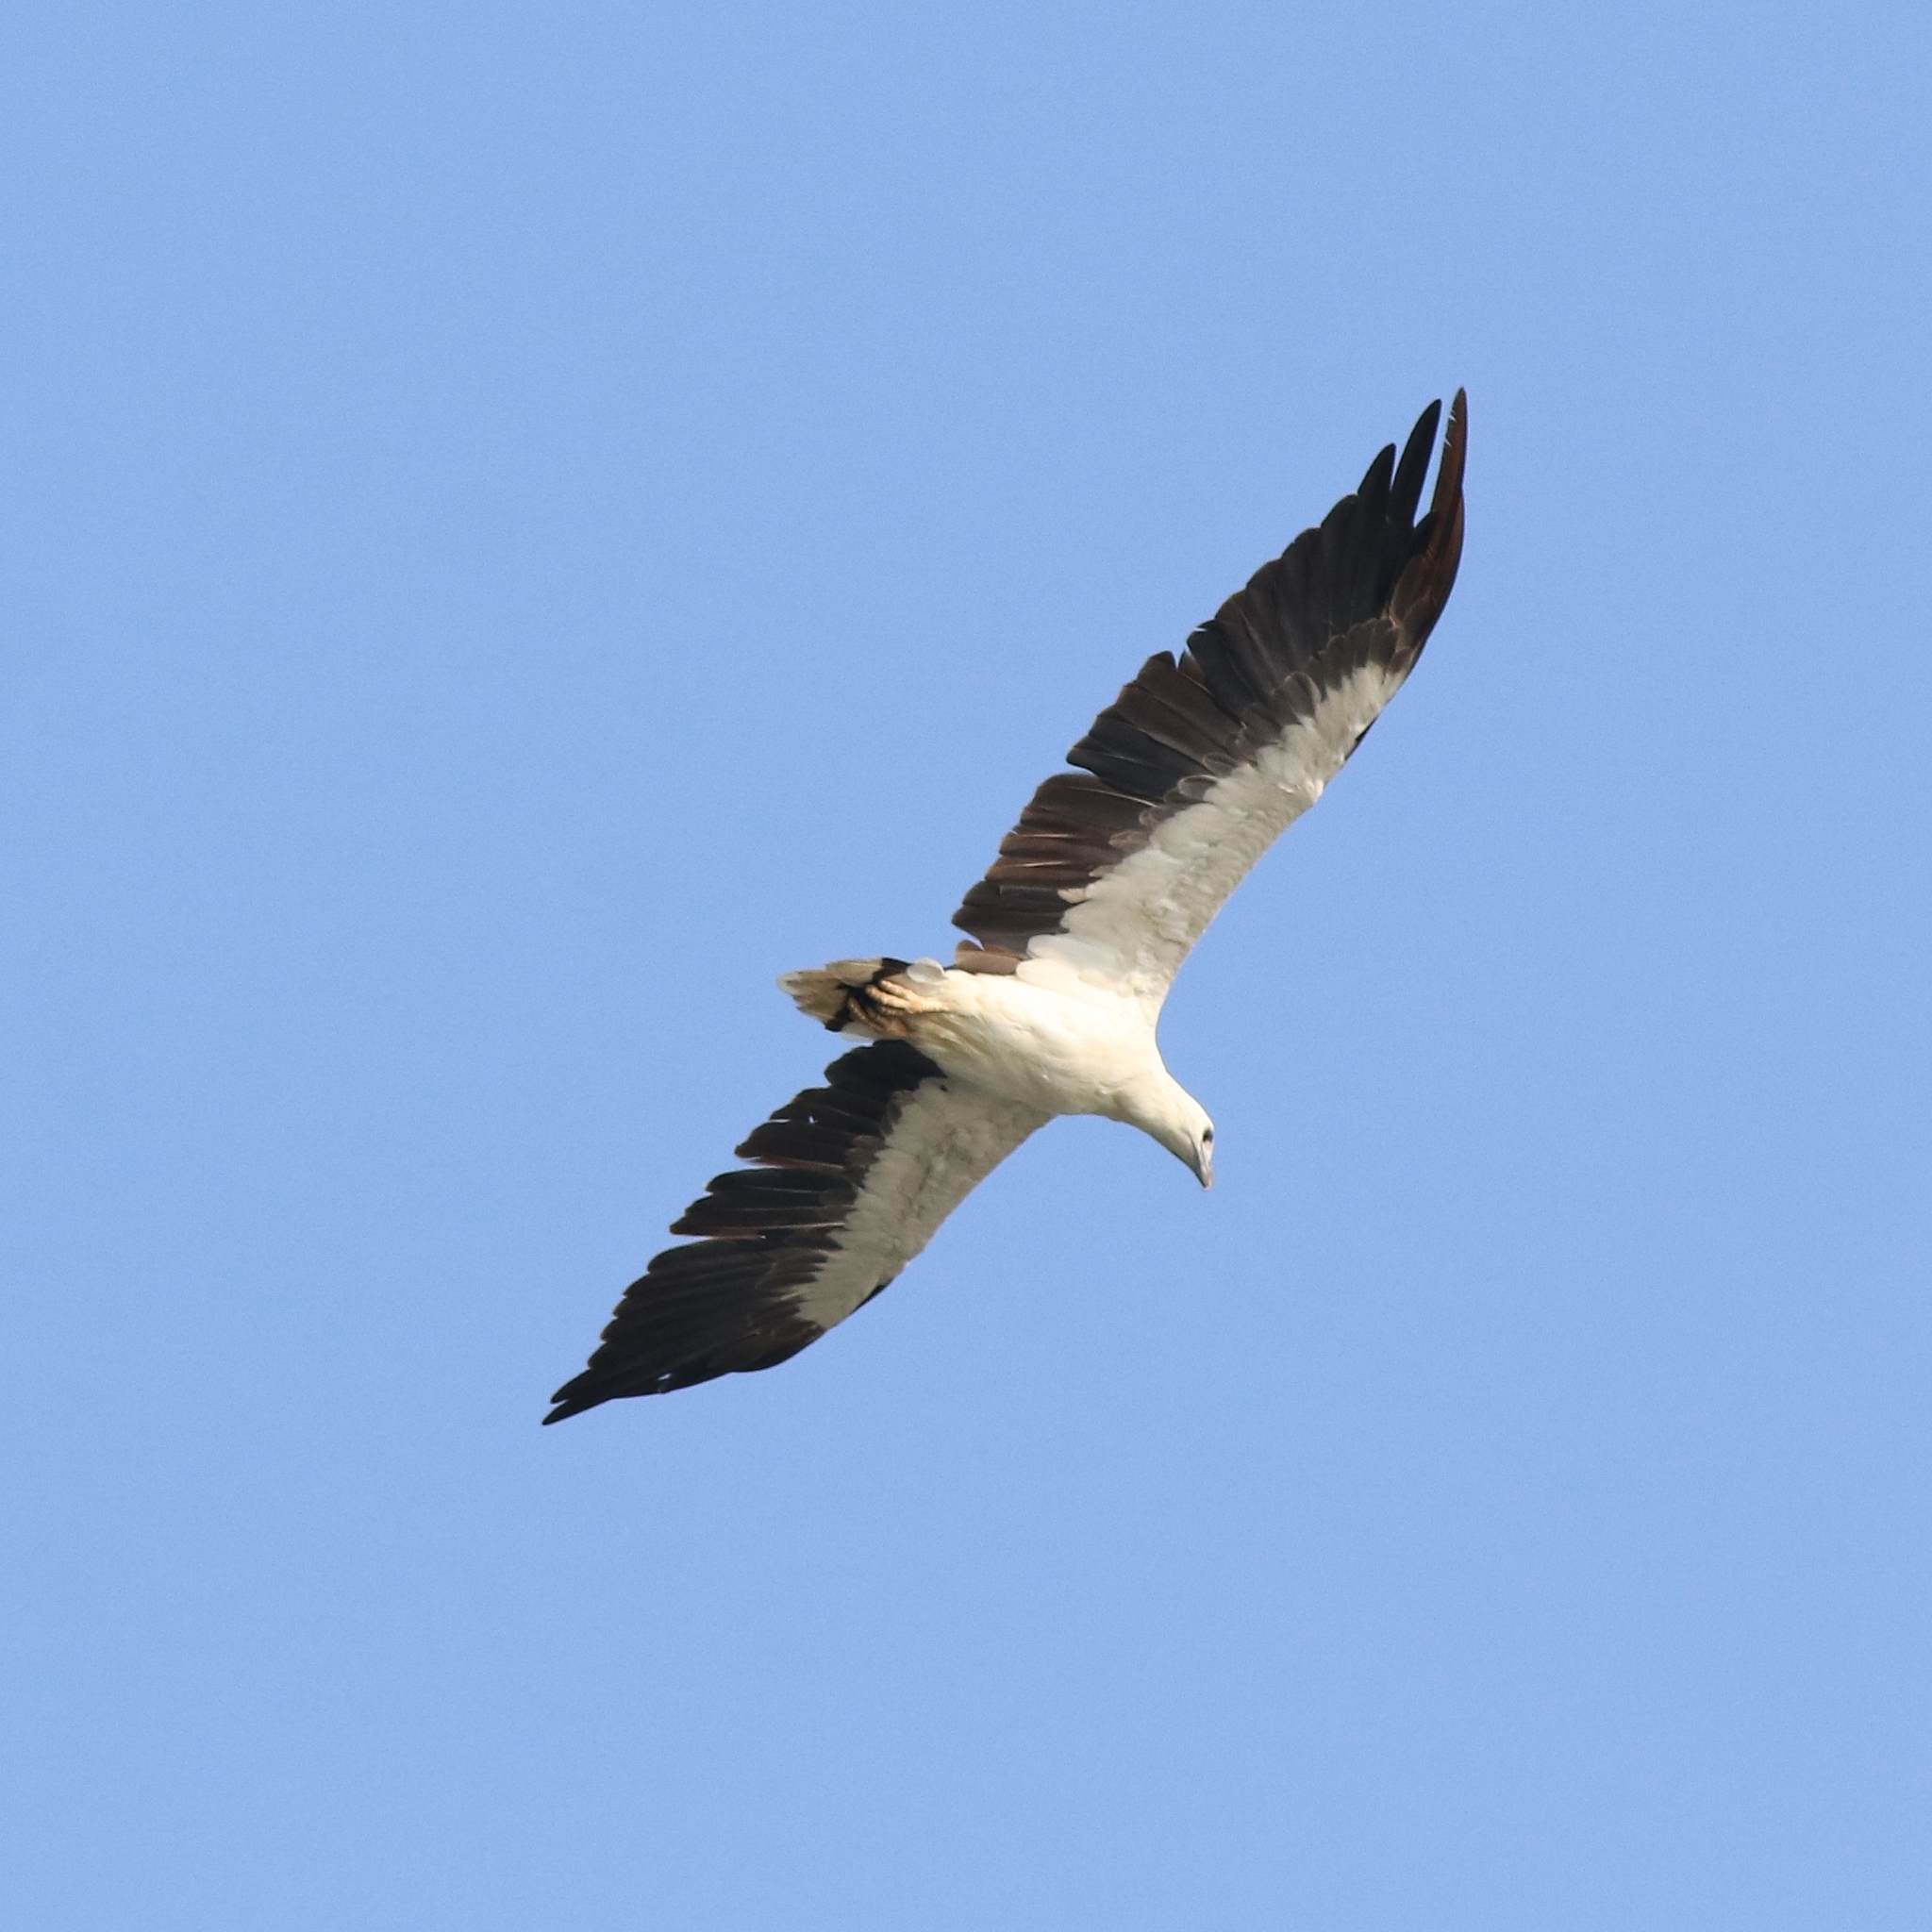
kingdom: Animalia
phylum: Chordata
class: Aves
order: Accipitriformes
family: Accipitridae
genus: Haliaeetus
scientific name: Haliaeetus leucogaster
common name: White-bellied sea eagle
